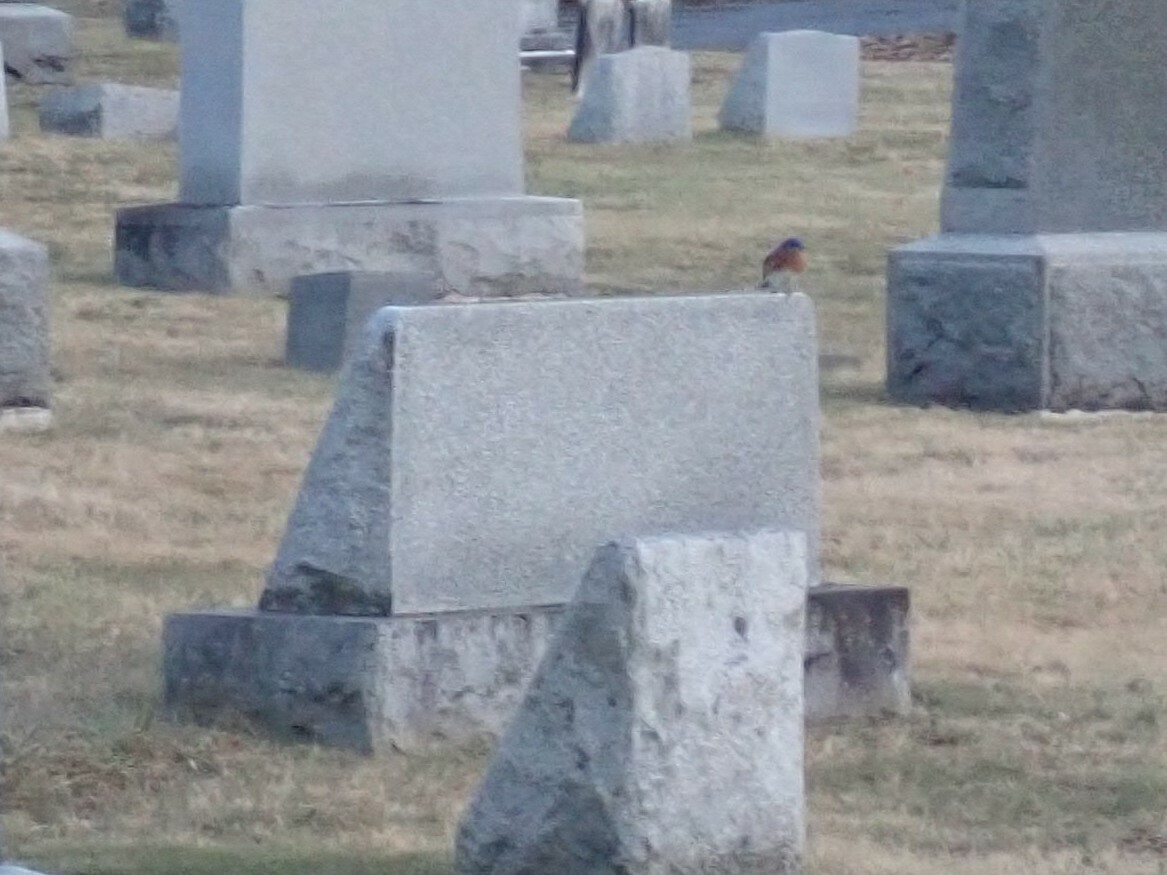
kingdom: Animalia
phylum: Chordata
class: Aves
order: Passeriformes
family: Turdidae
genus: Sialia
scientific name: Sialia sialis
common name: Eastern bluebird
